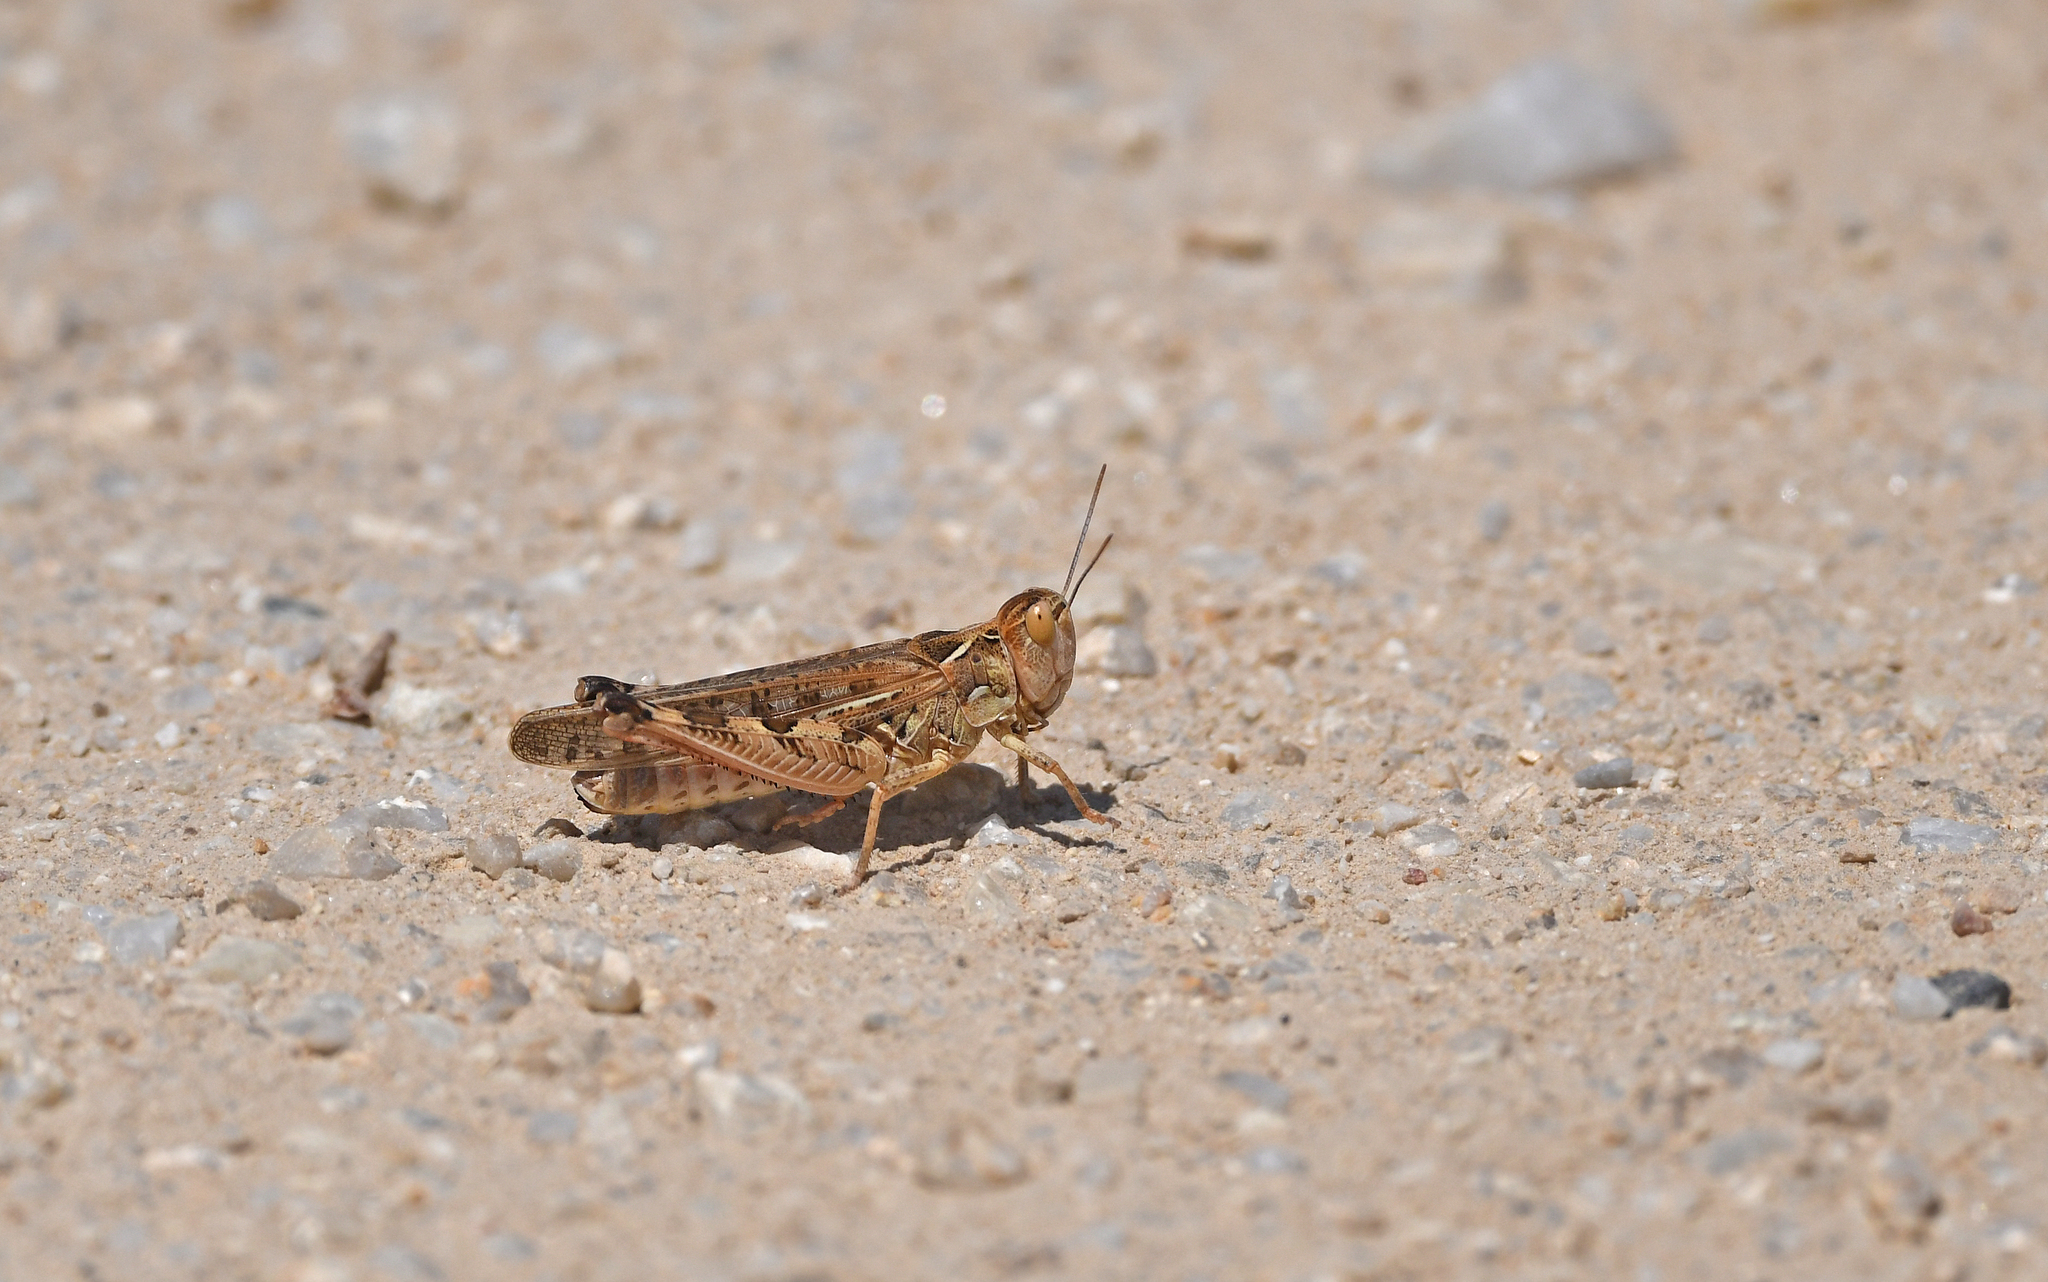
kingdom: Animalia
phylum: Arthropoda
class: Insecta
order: Orthoptera
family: Acrididae
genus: Dociostaurus
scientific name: Dociostaurus maroccanus
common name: Moroccan locust
